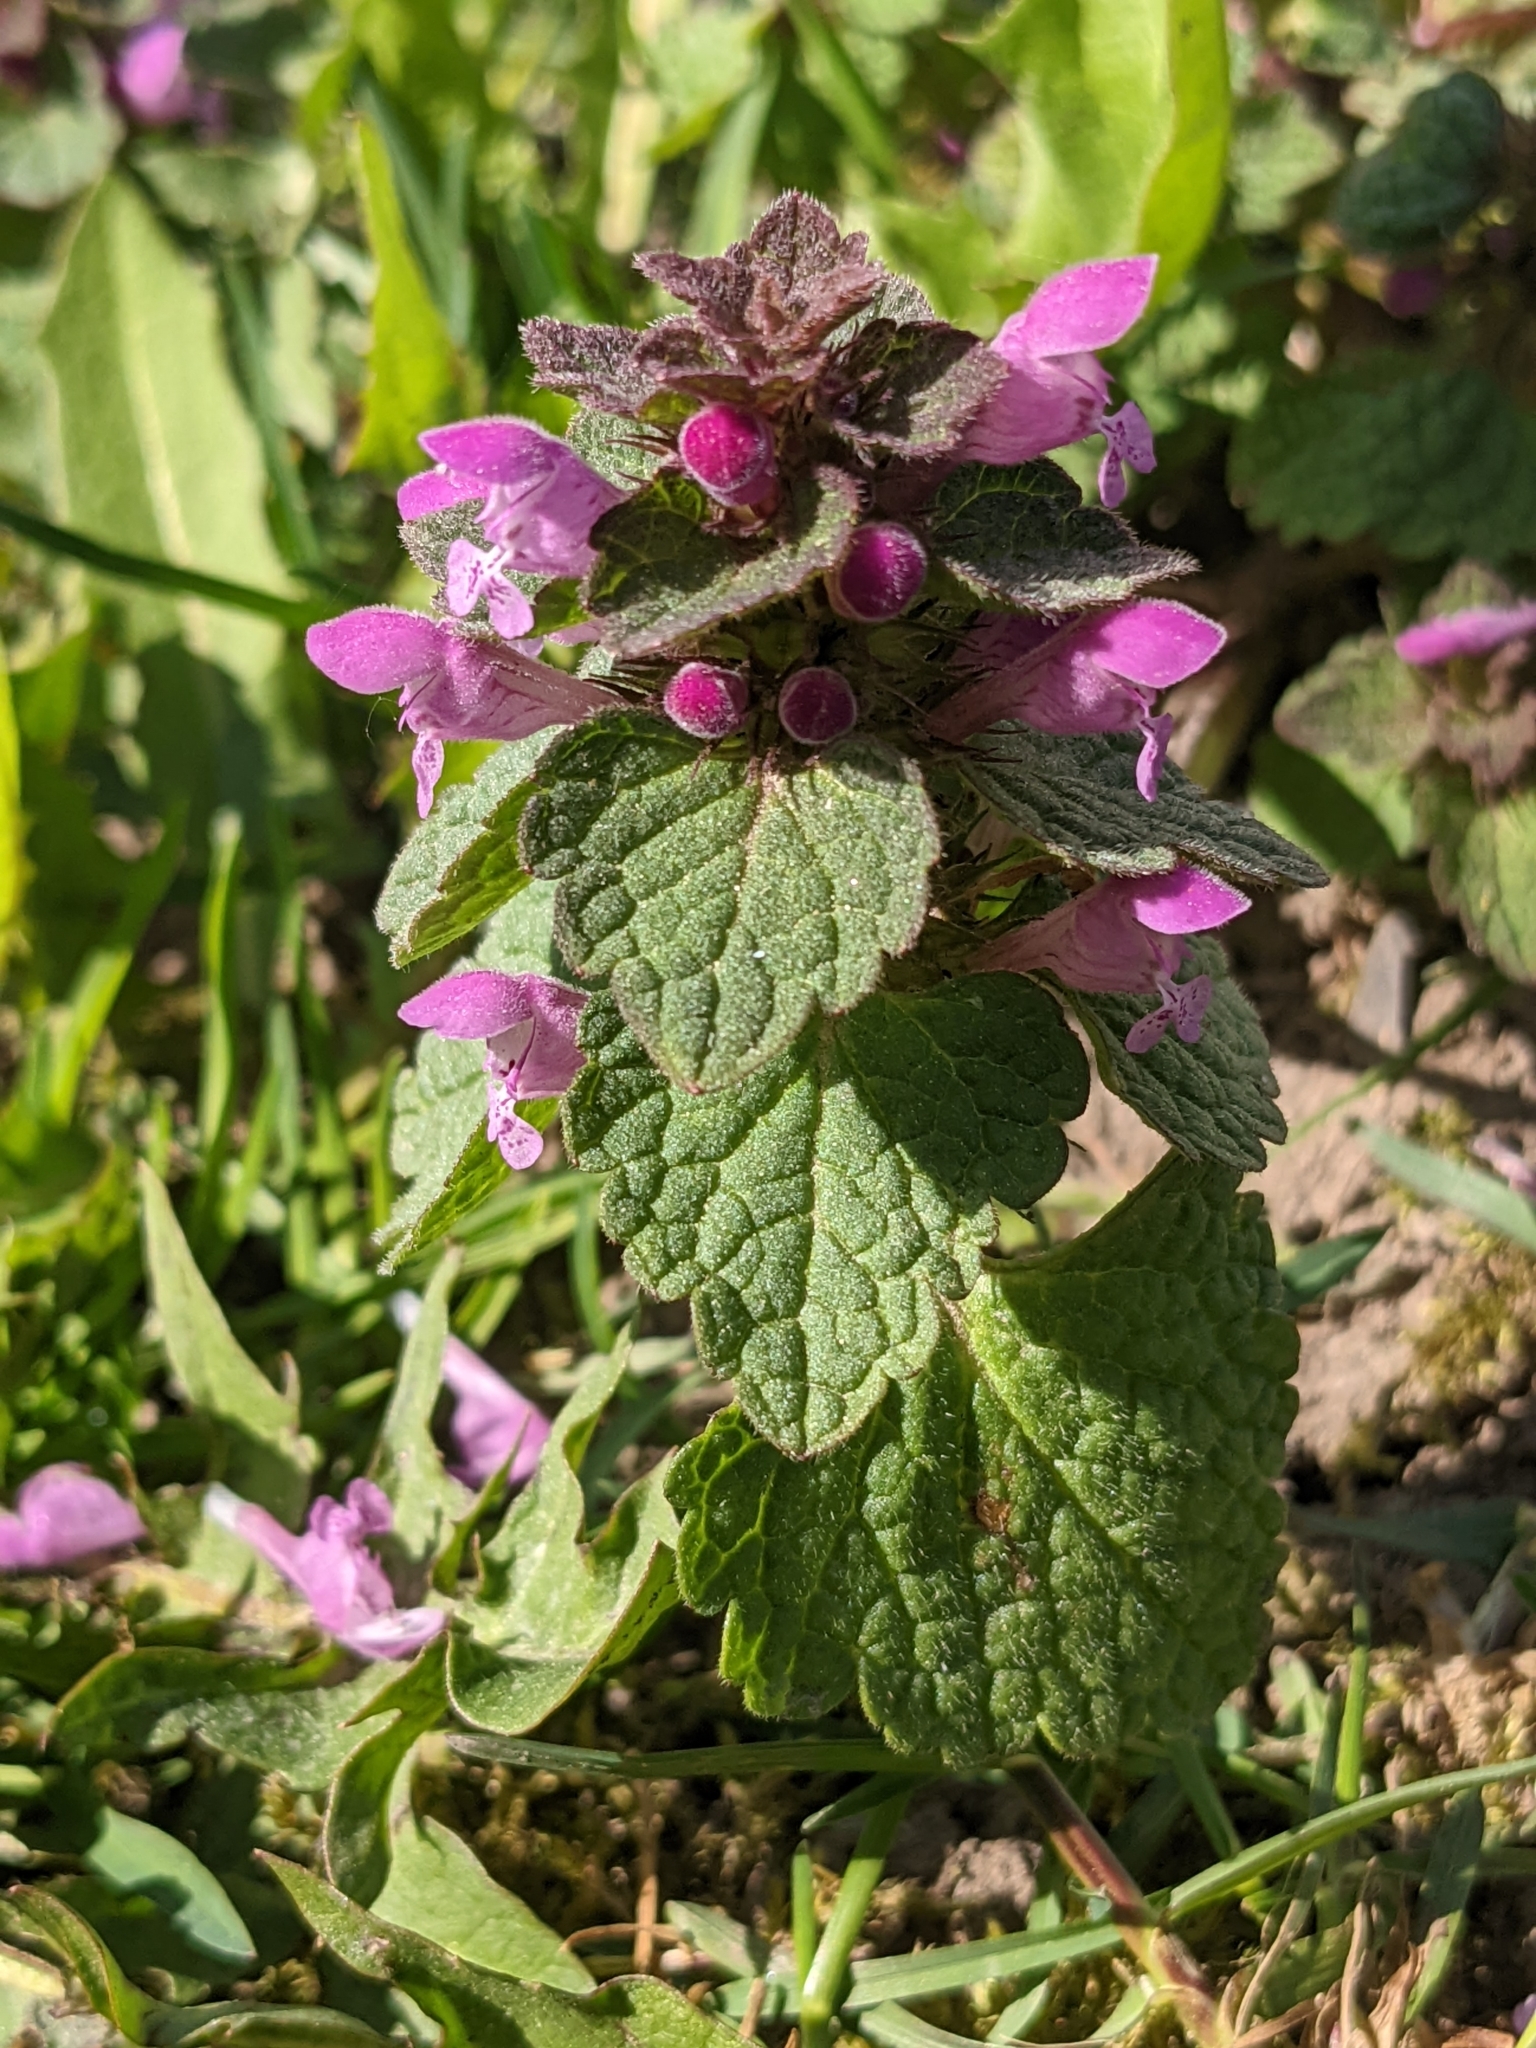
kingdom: Plantae
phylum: Tracheophyta
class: Magnoliopsida
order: Lamiales
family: Lamiaceae
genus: Lamium
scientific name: Lamium purpureum
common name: Red dead-nettle
